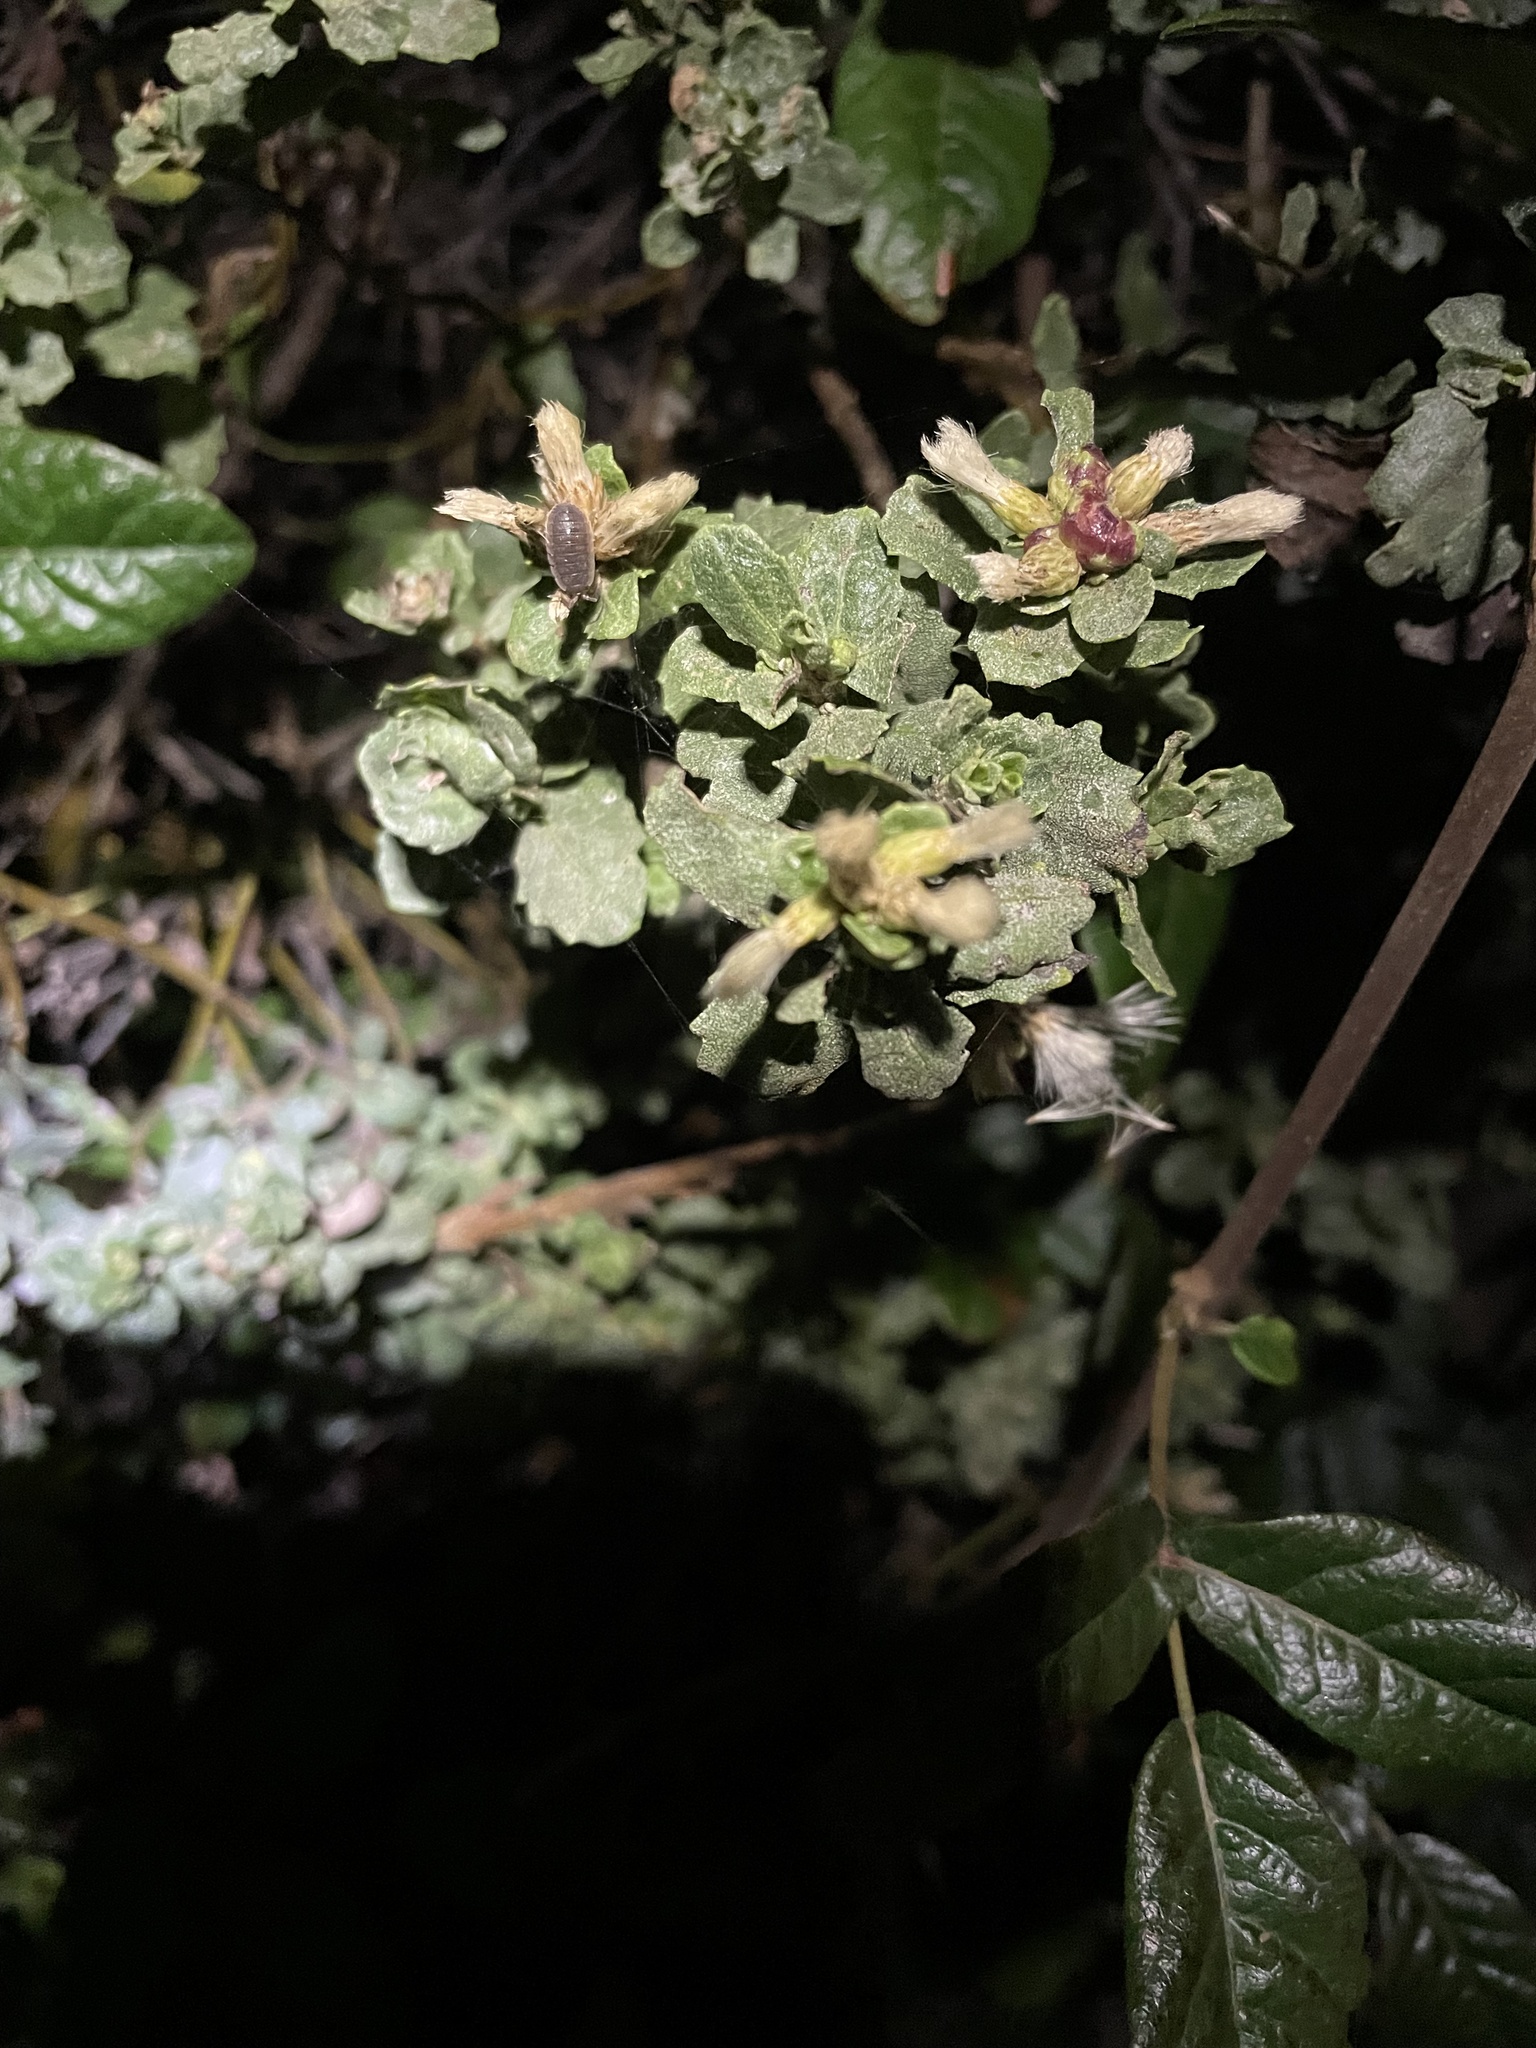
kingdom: Plantae
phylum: Tracheophyta
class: Magnoliopsida
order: Asterales
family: Asteraceae
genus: Baccharis
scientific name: Baccharis pilularis
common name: Coyotebrush
